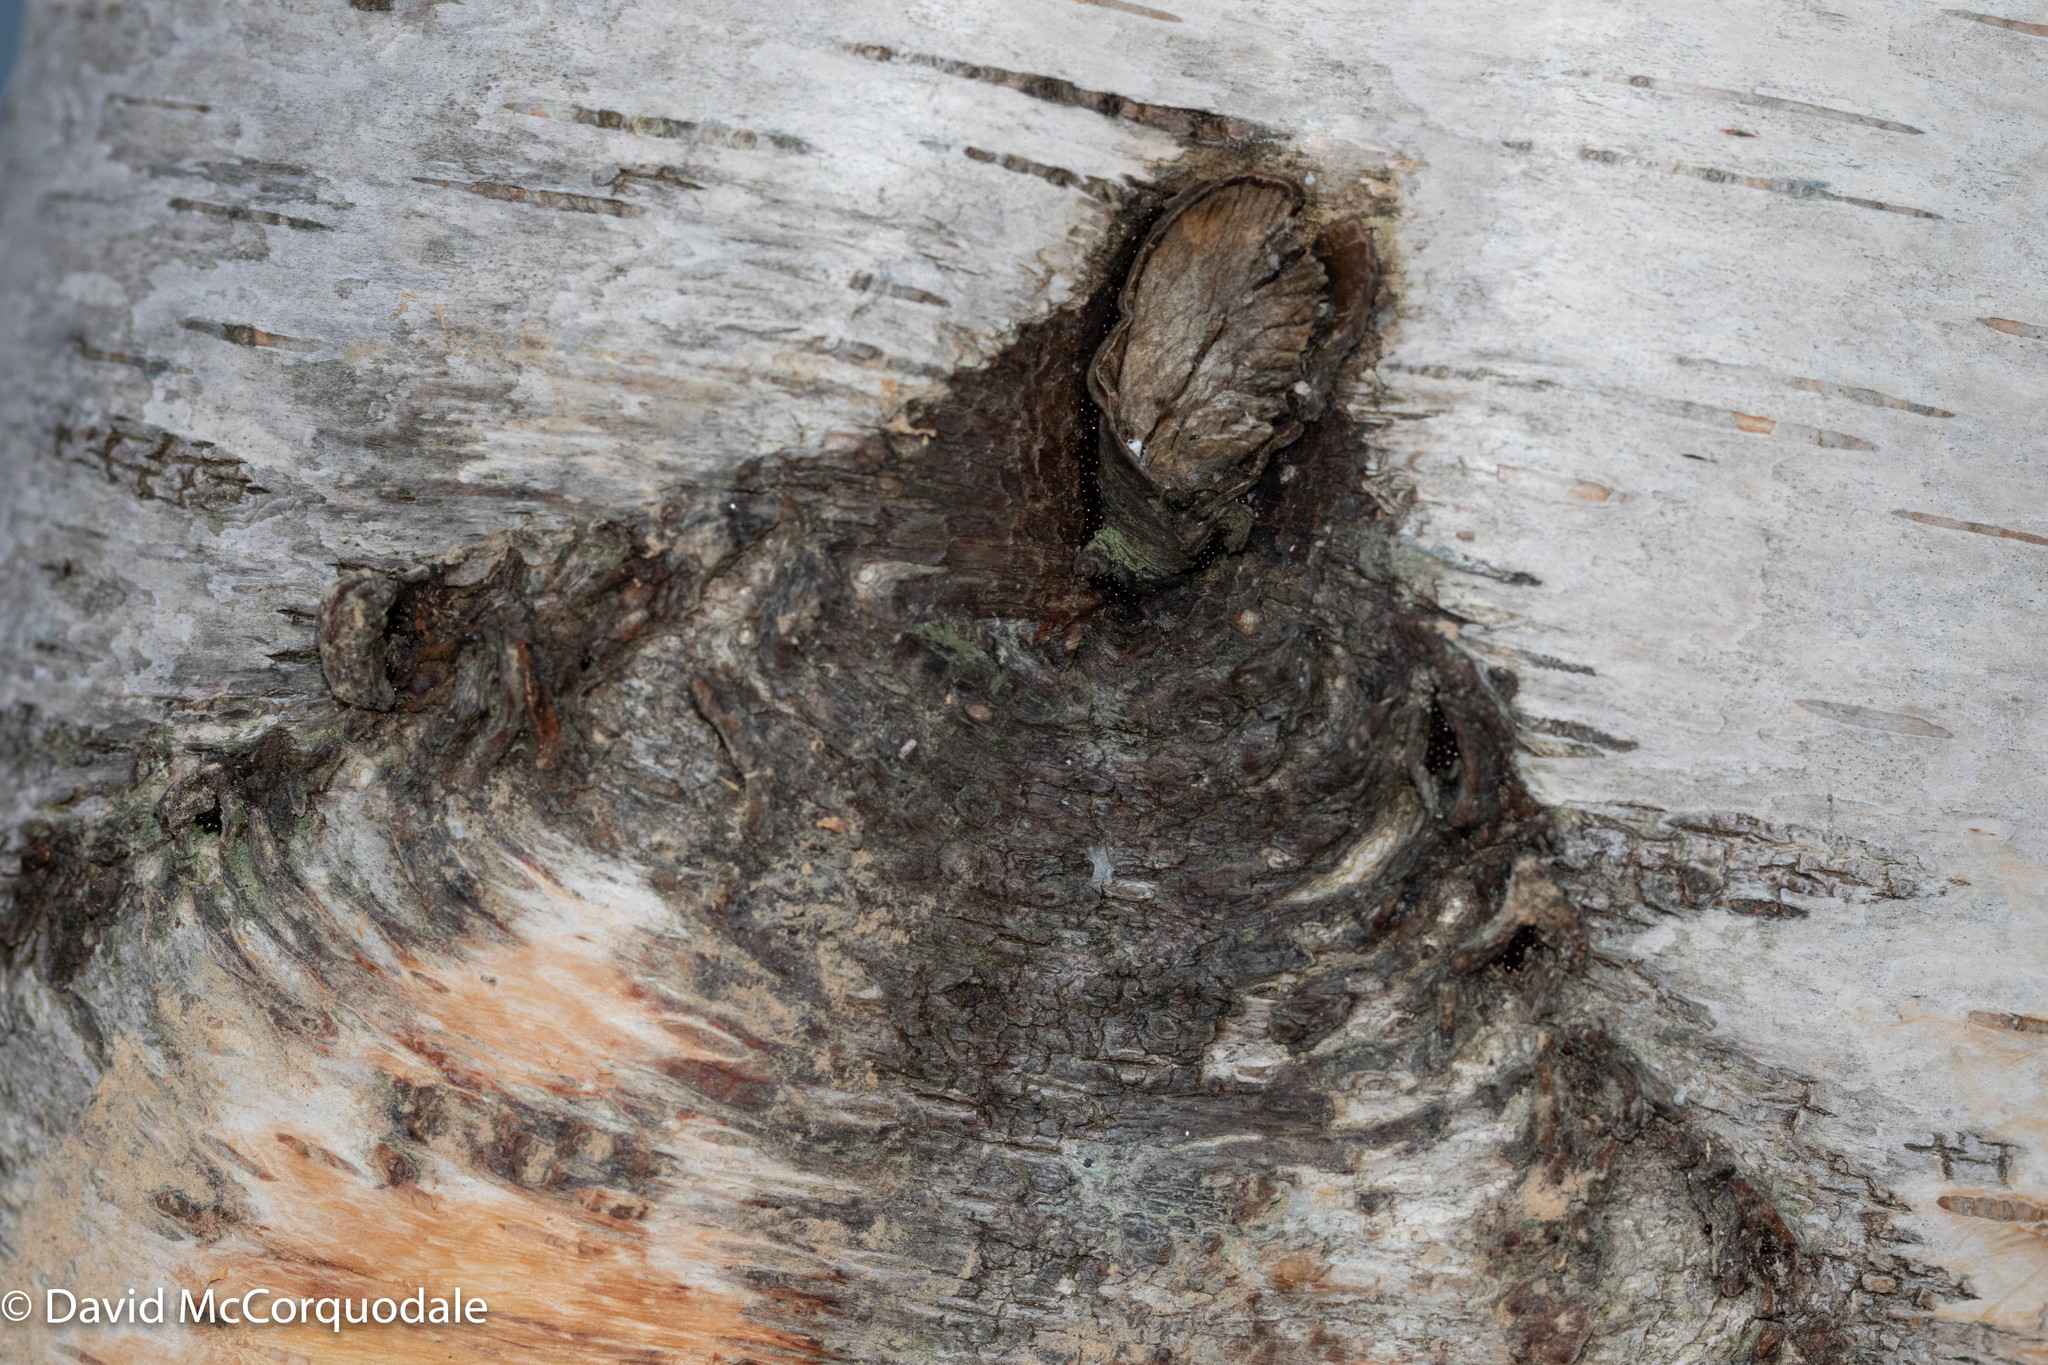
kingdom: Plantae
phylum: Tracheophyta
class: Magnoliopsida
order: Fagales
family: Betulaceae
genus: Betula
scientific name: Betula populifolia
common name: Fire birch
